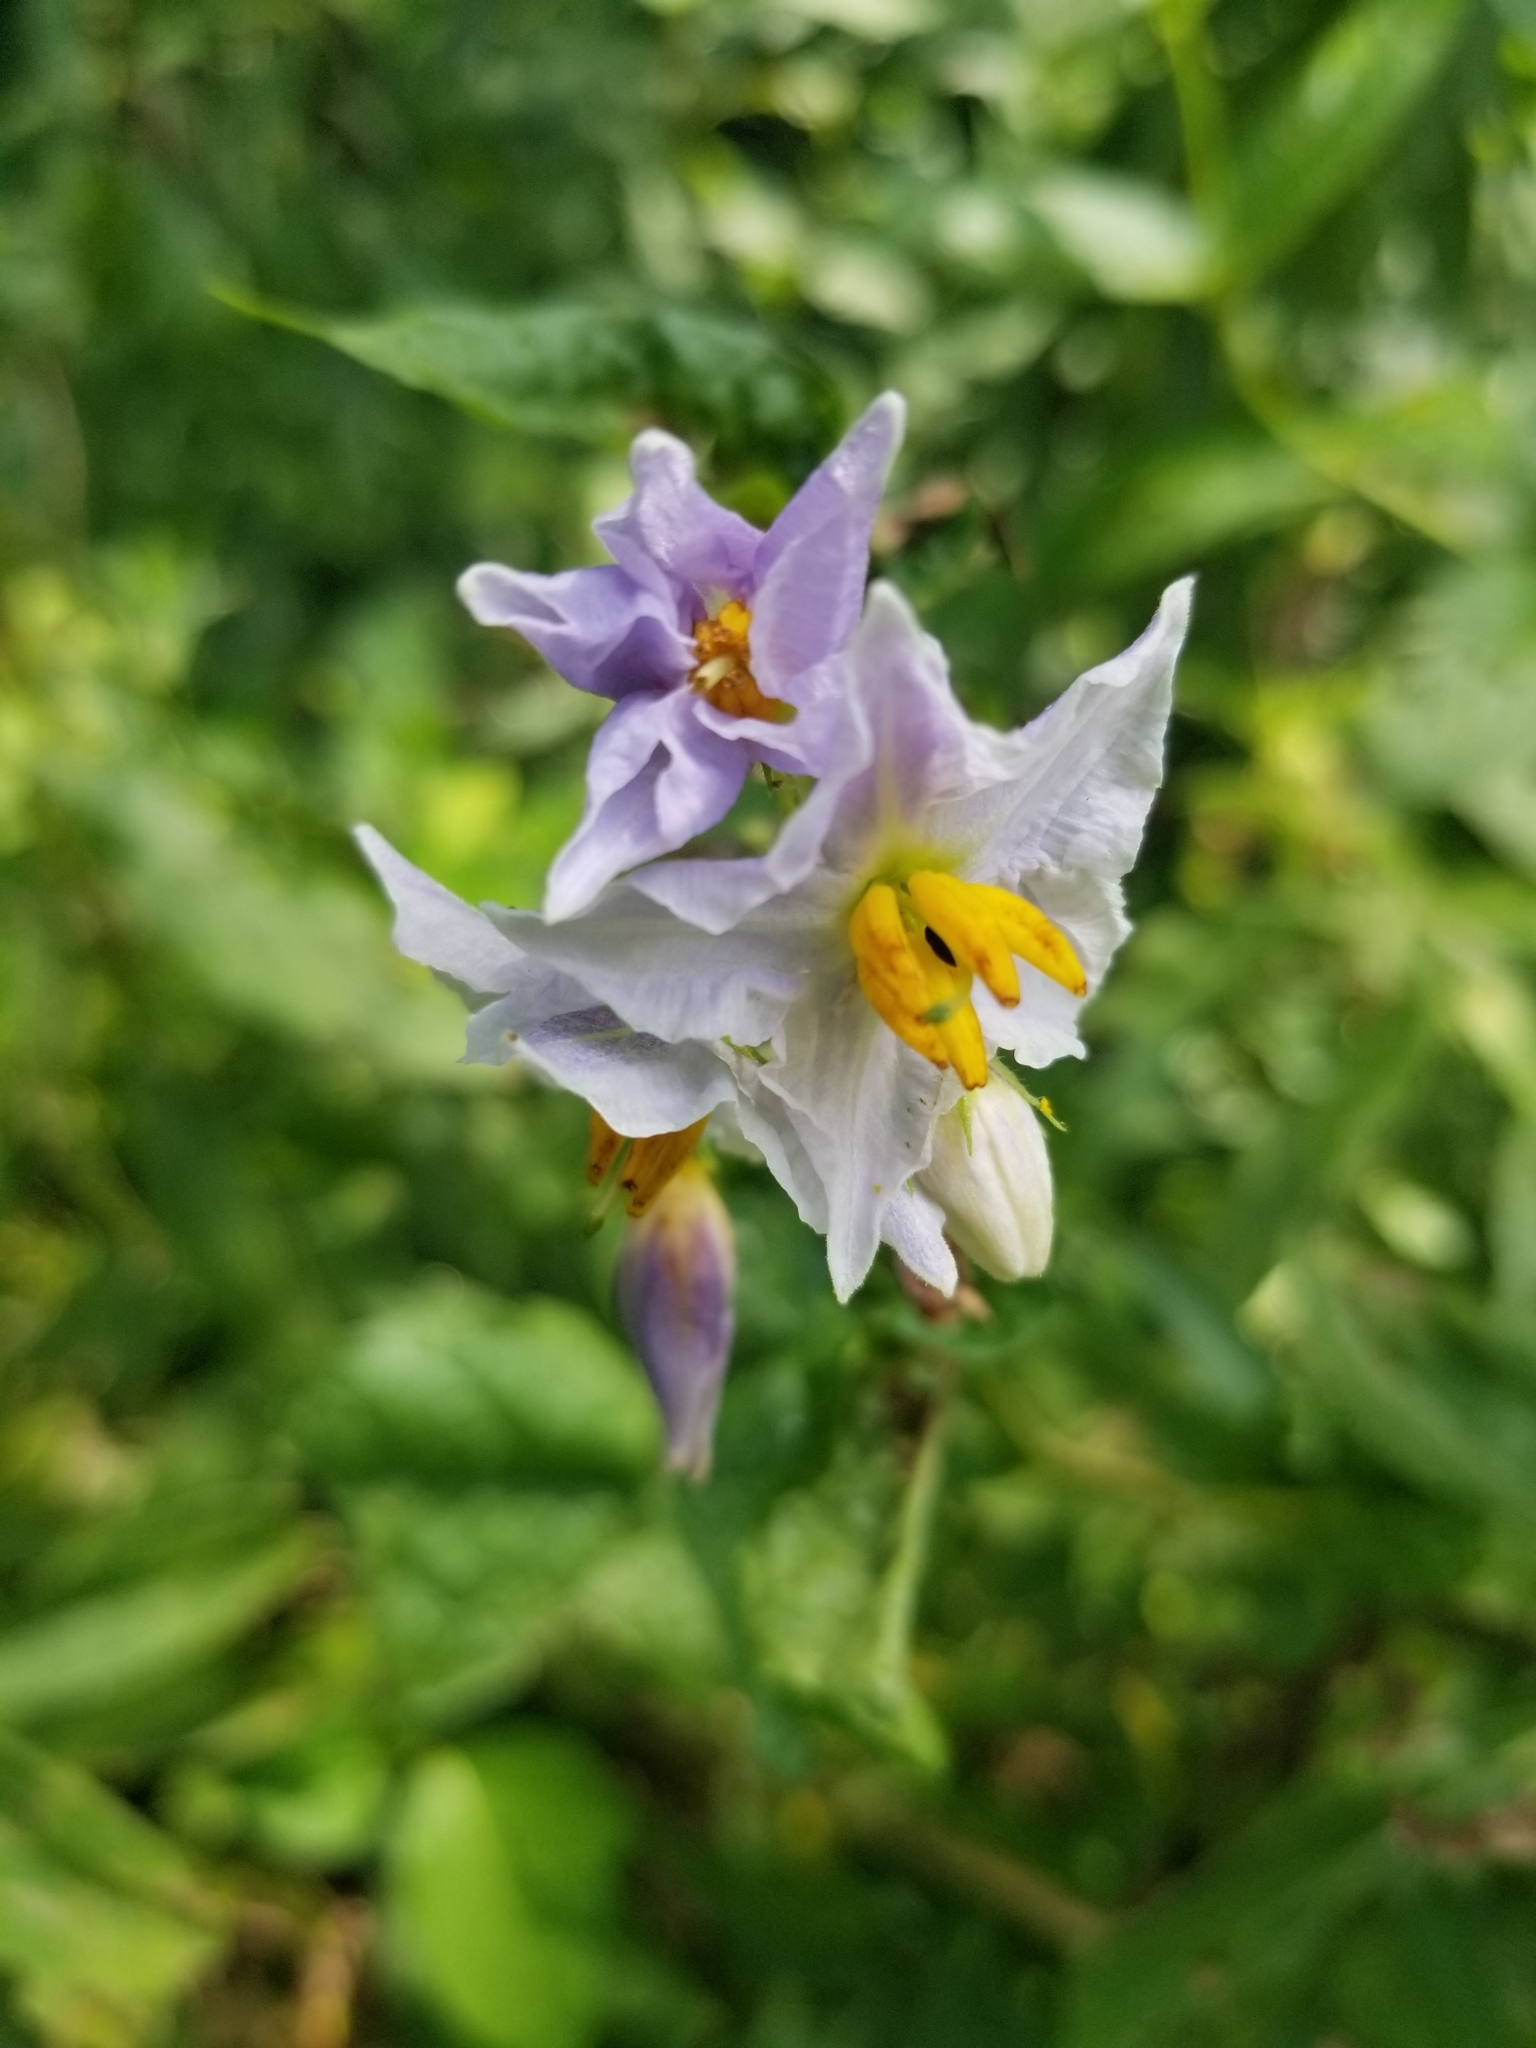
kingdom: Plantae
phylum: Tracheophyta
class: Magnoliopsida
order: Solanales
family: Solanaceae
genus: Solanum
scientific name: Solanum carolinense
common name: Horse-nettle
